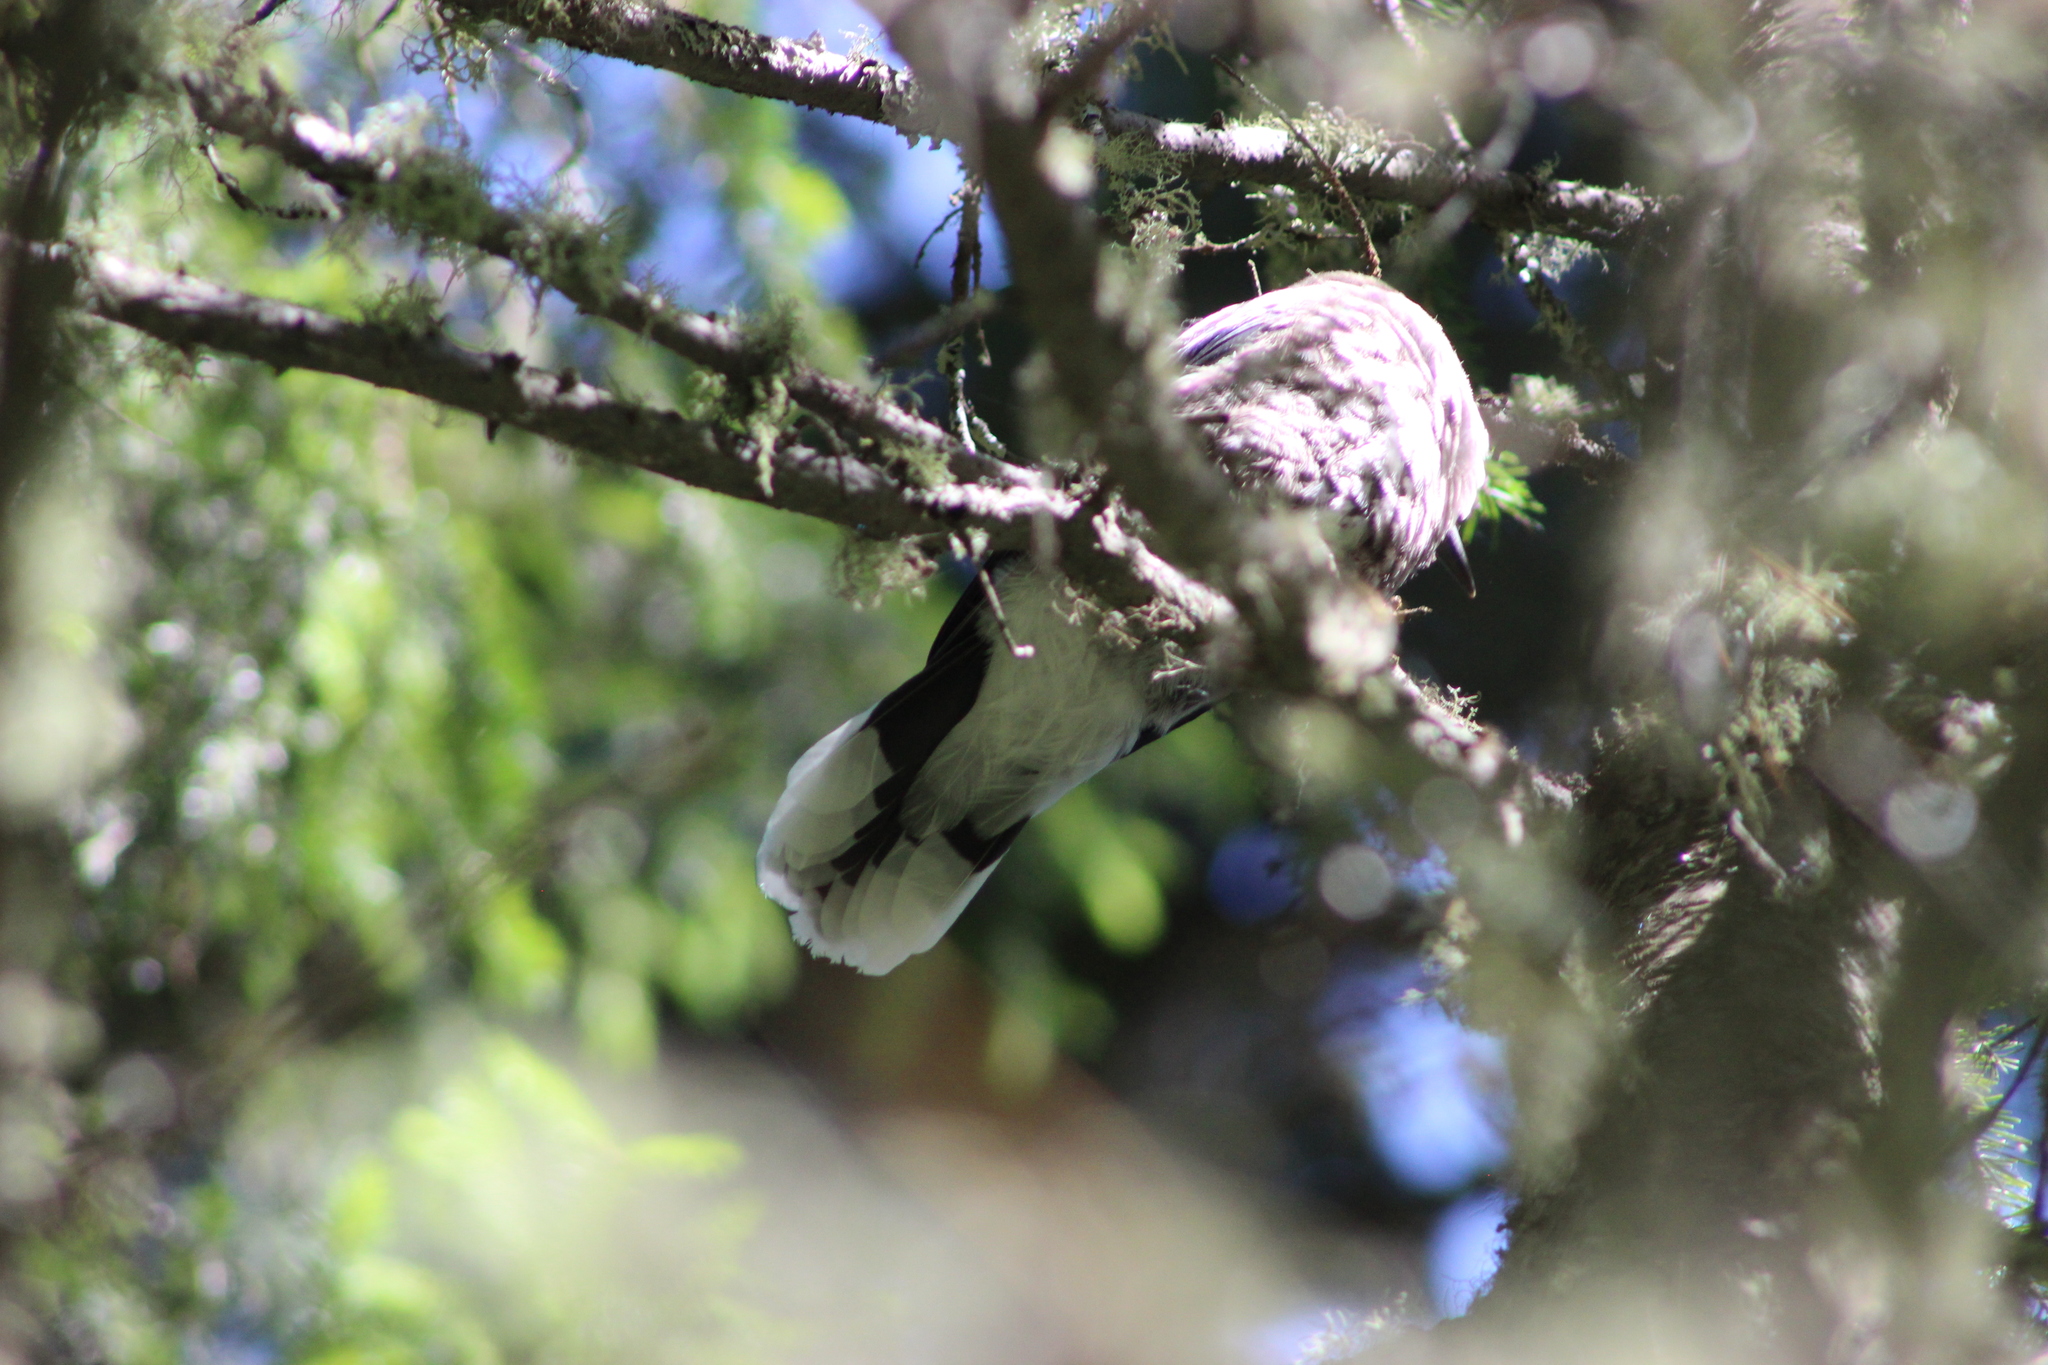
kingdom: Animalia
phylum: Chordata
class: Aves
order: Passeriformes
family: Corvidae
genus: Nucifraga
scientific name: Nucifraga caryocatactes
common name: Spotted nutcracker
